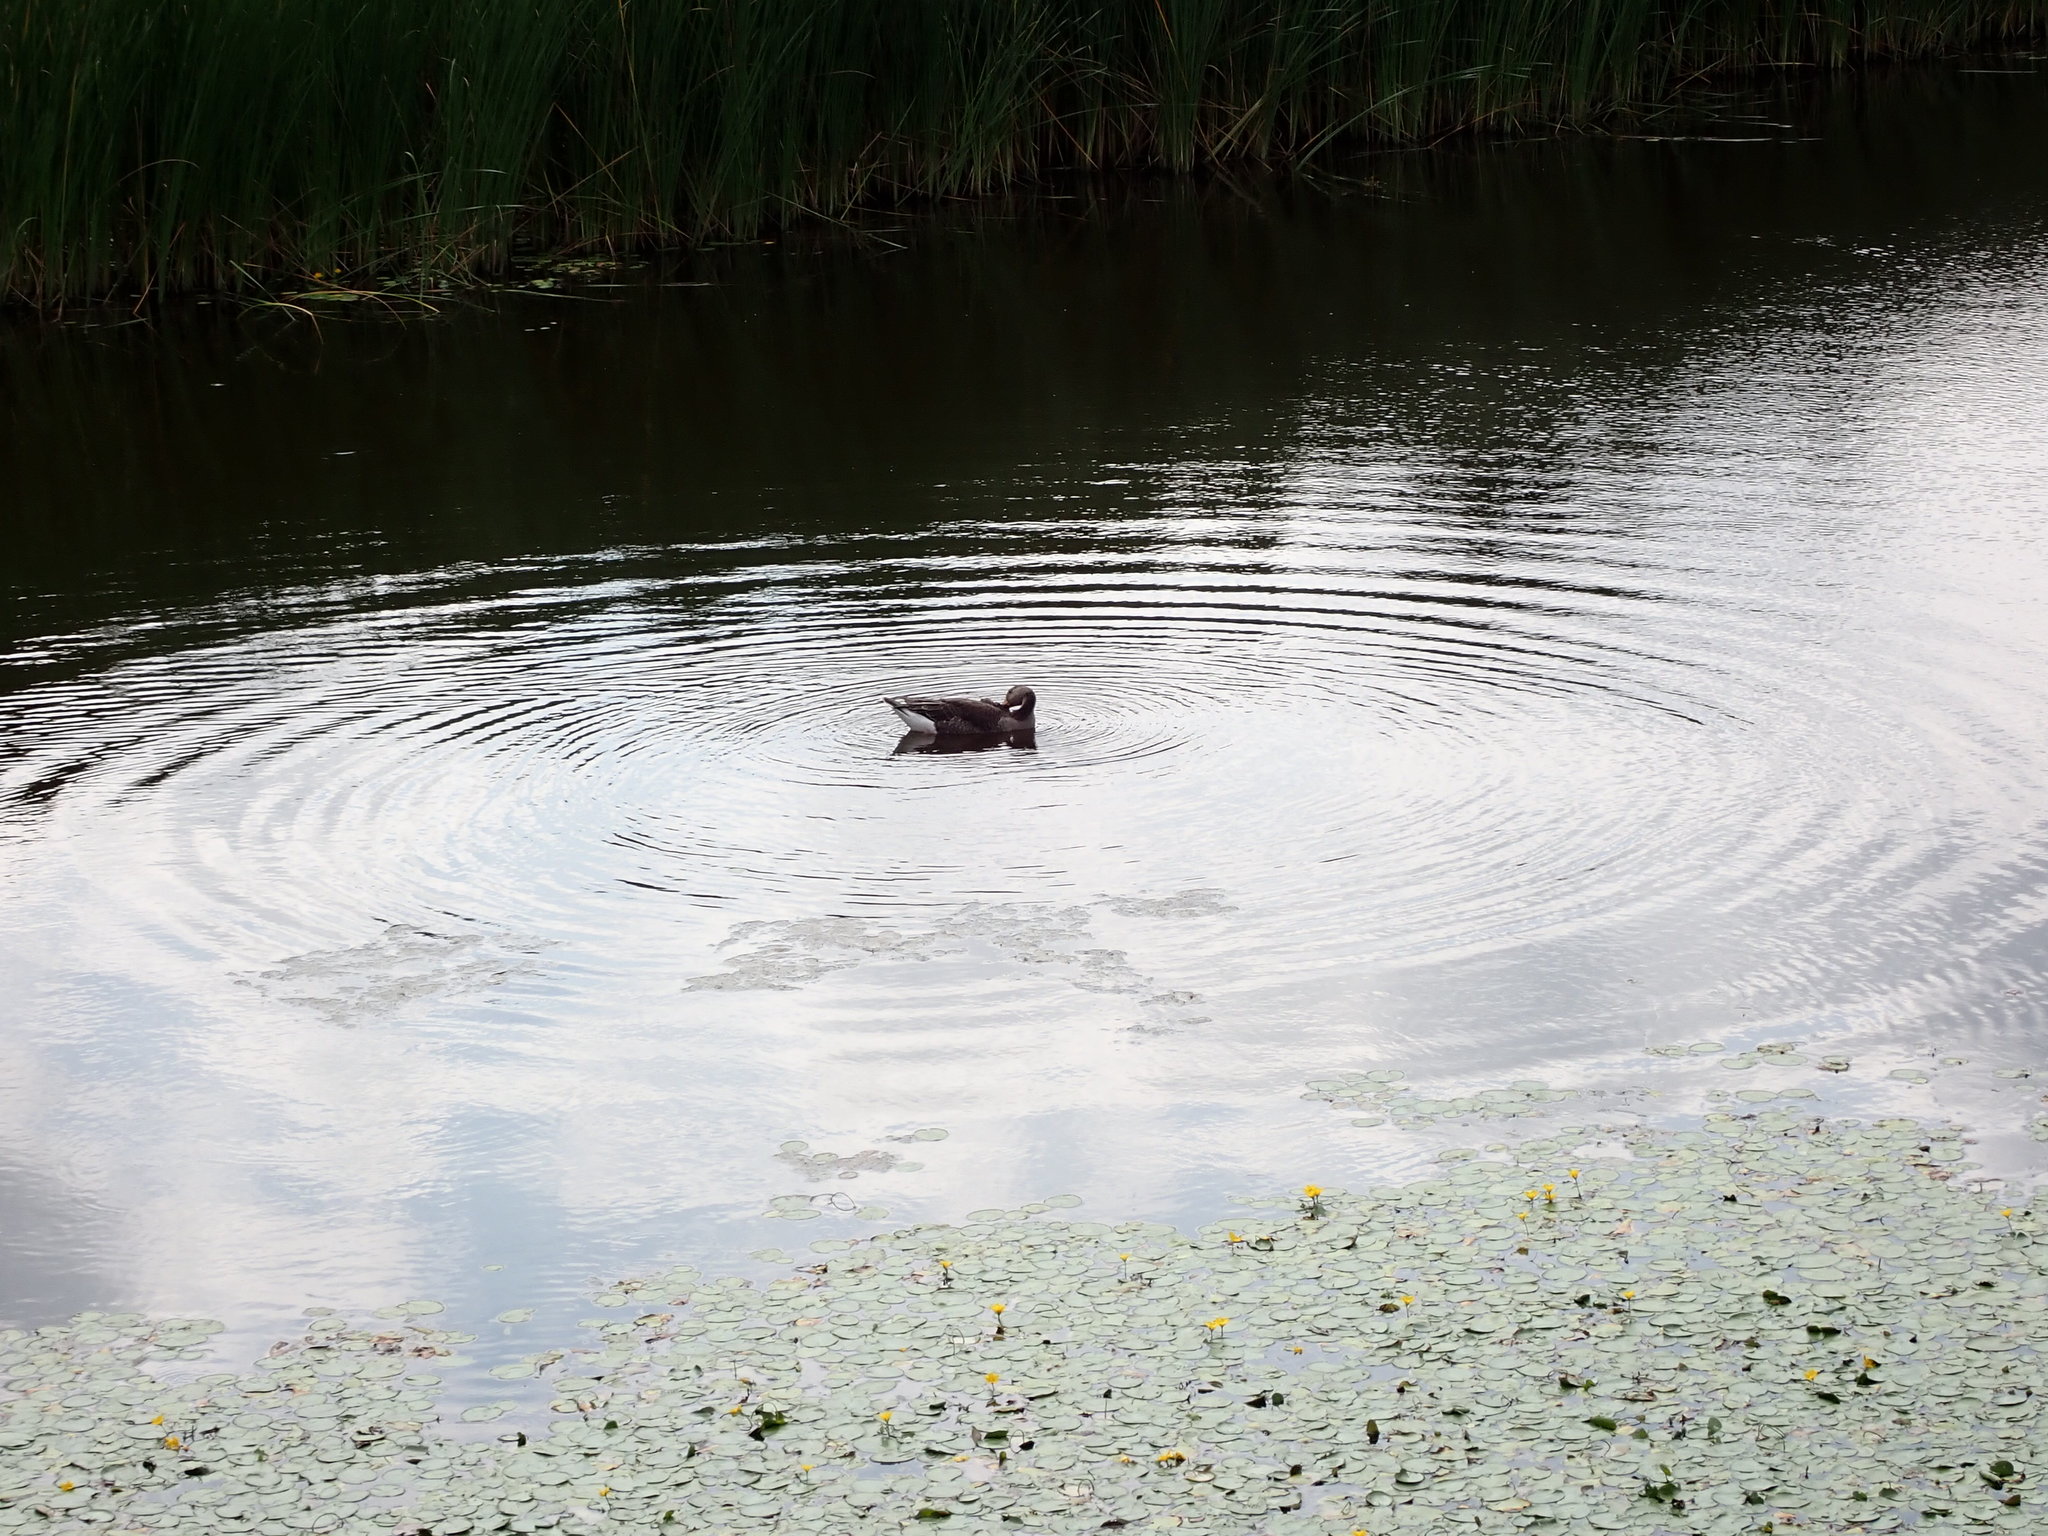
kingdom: Animalia
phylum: Chordata
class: Aves
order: Anseriformes
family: Anatidae
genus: Anser
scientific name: Anser anser
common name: Greylag goose
